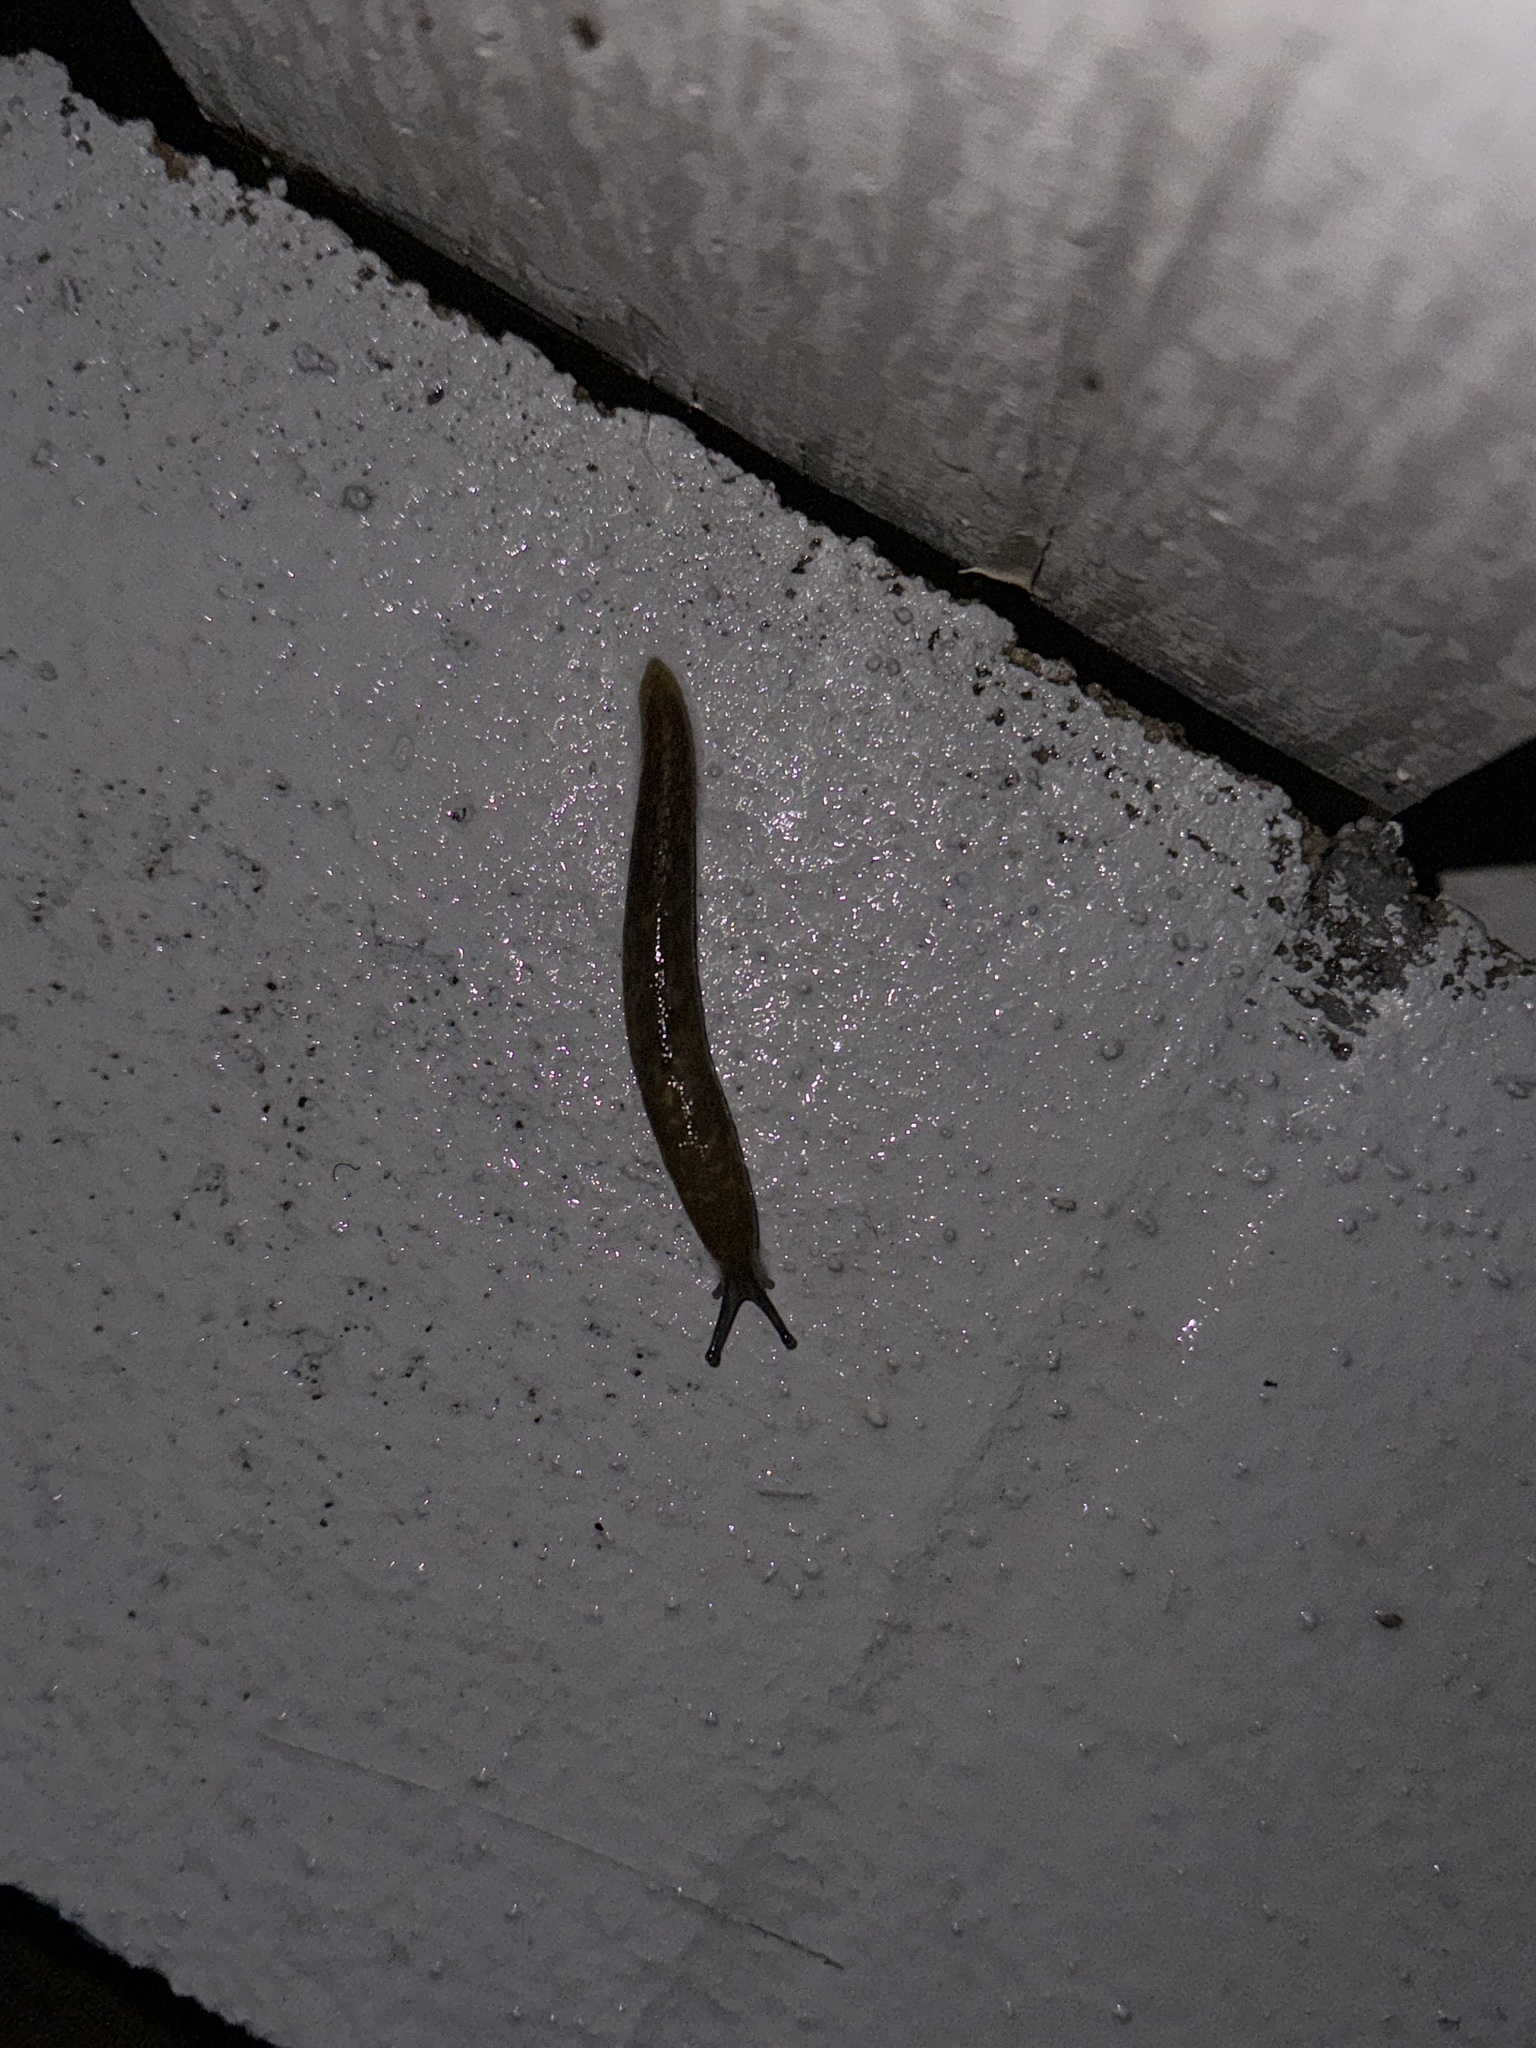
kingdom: Animalia
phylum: Mollusca
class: Gastropoda
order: Stylommatophora
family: Limacidae
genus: Limacus
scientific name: Limacus flavus
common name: Yellow gardenslug
